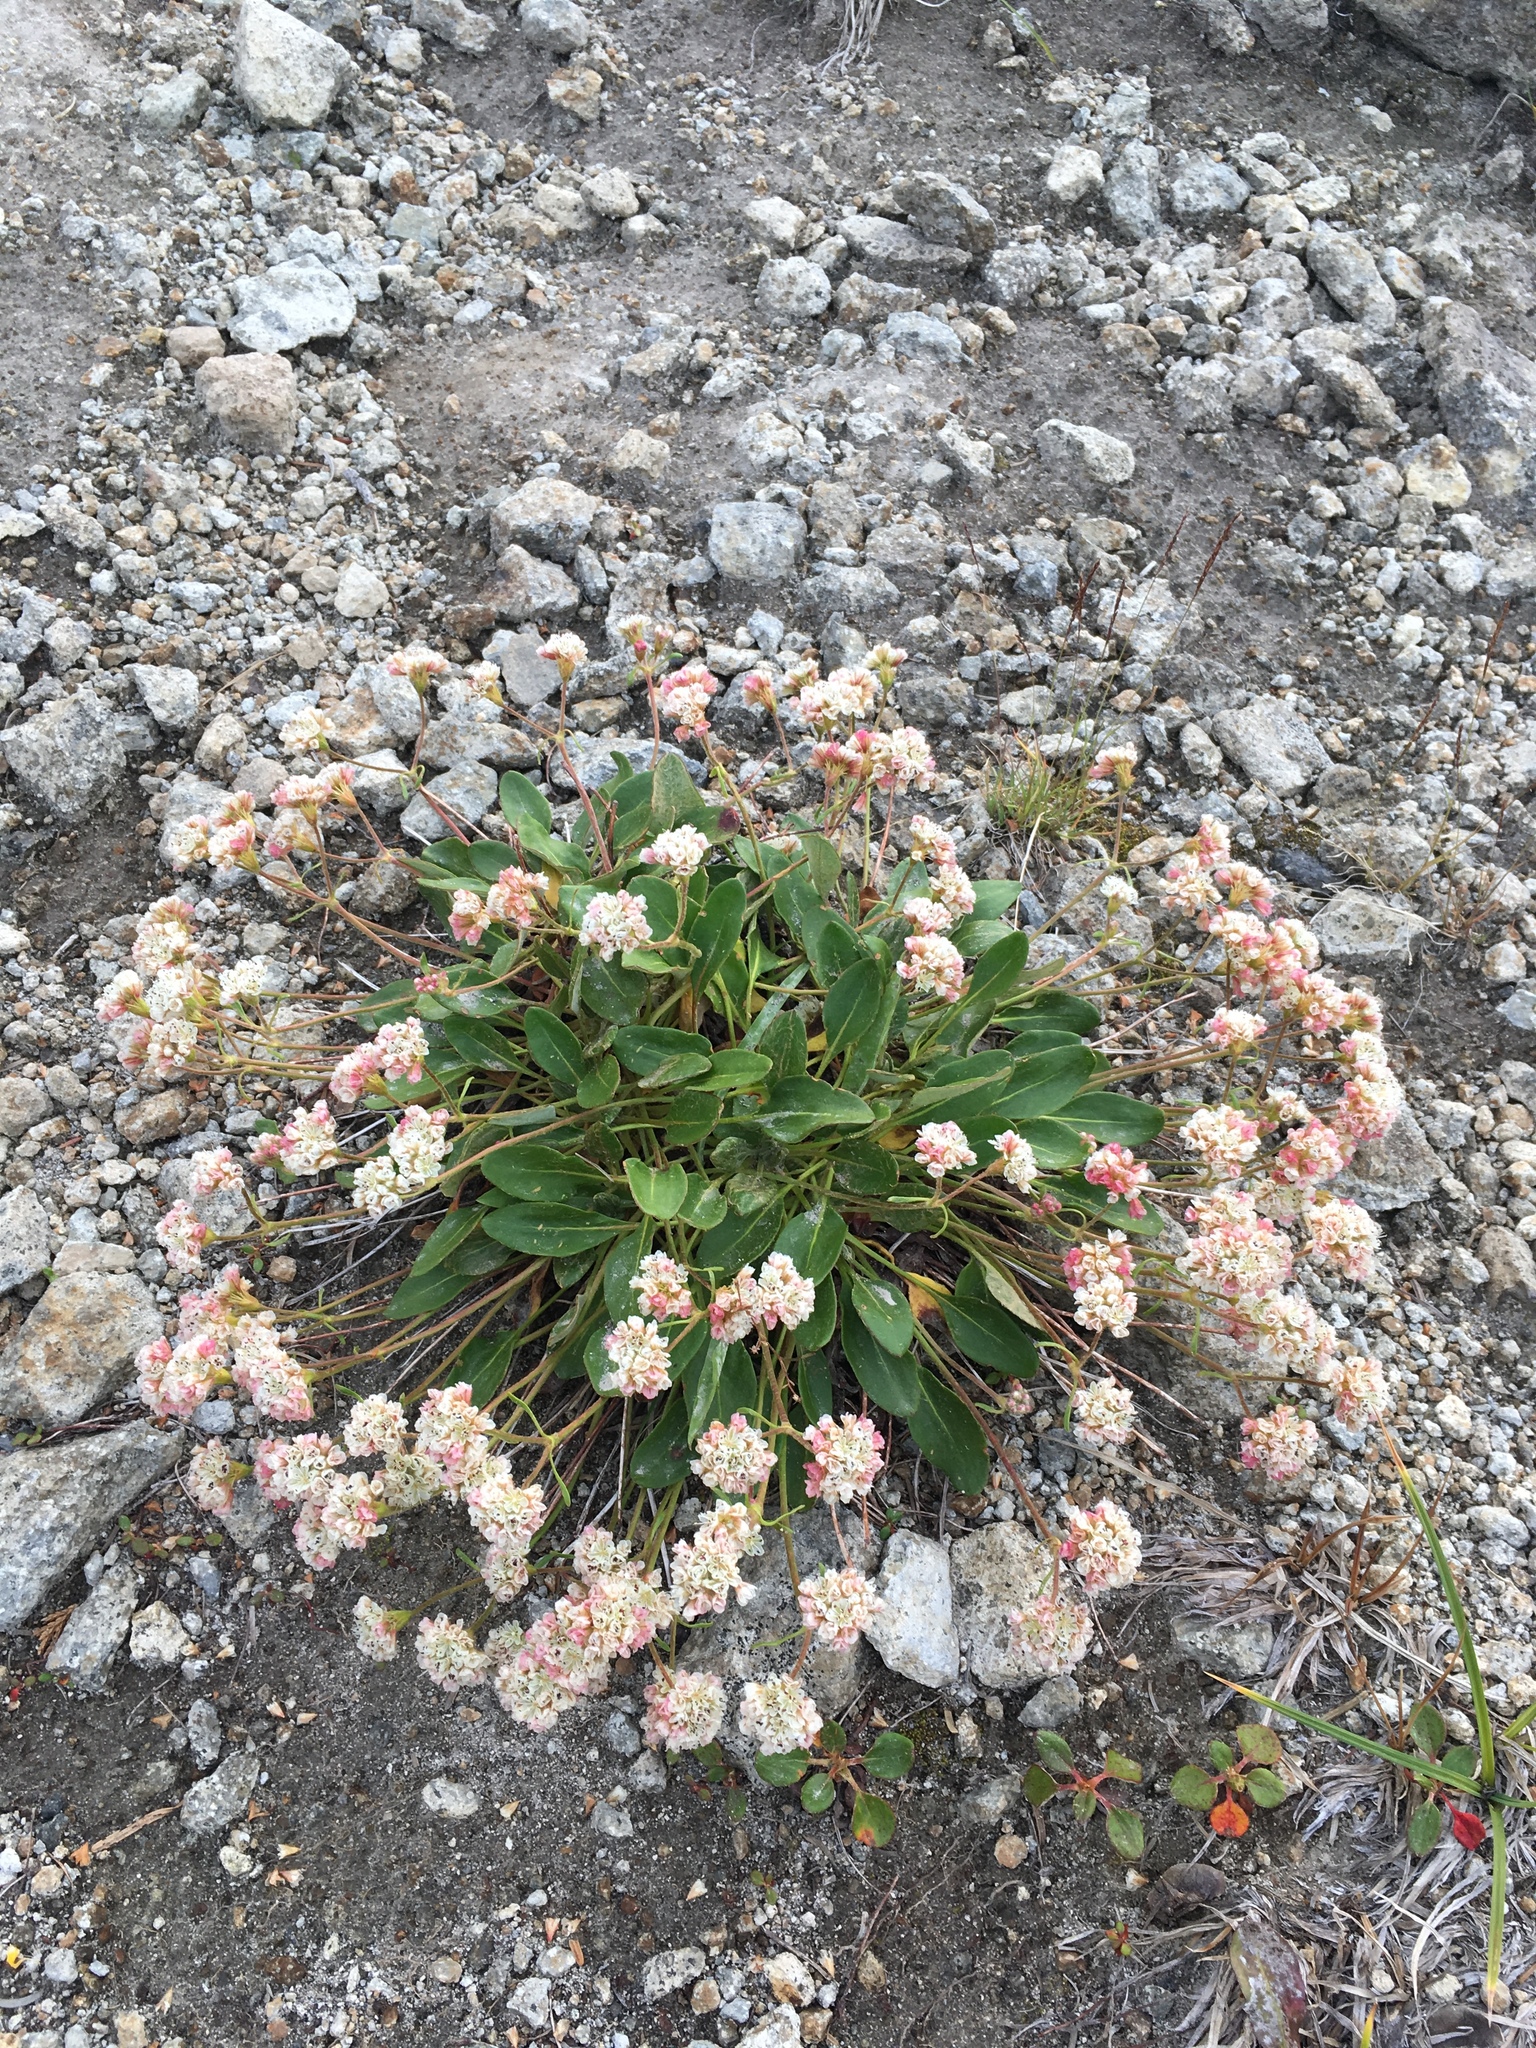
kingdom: Plantae
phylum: Tracheophyta
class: Magnoliopsida
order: Caryophyllales
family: Polygonaceae
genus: Eriogonum
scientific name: Eriogonum pyrolifolium
